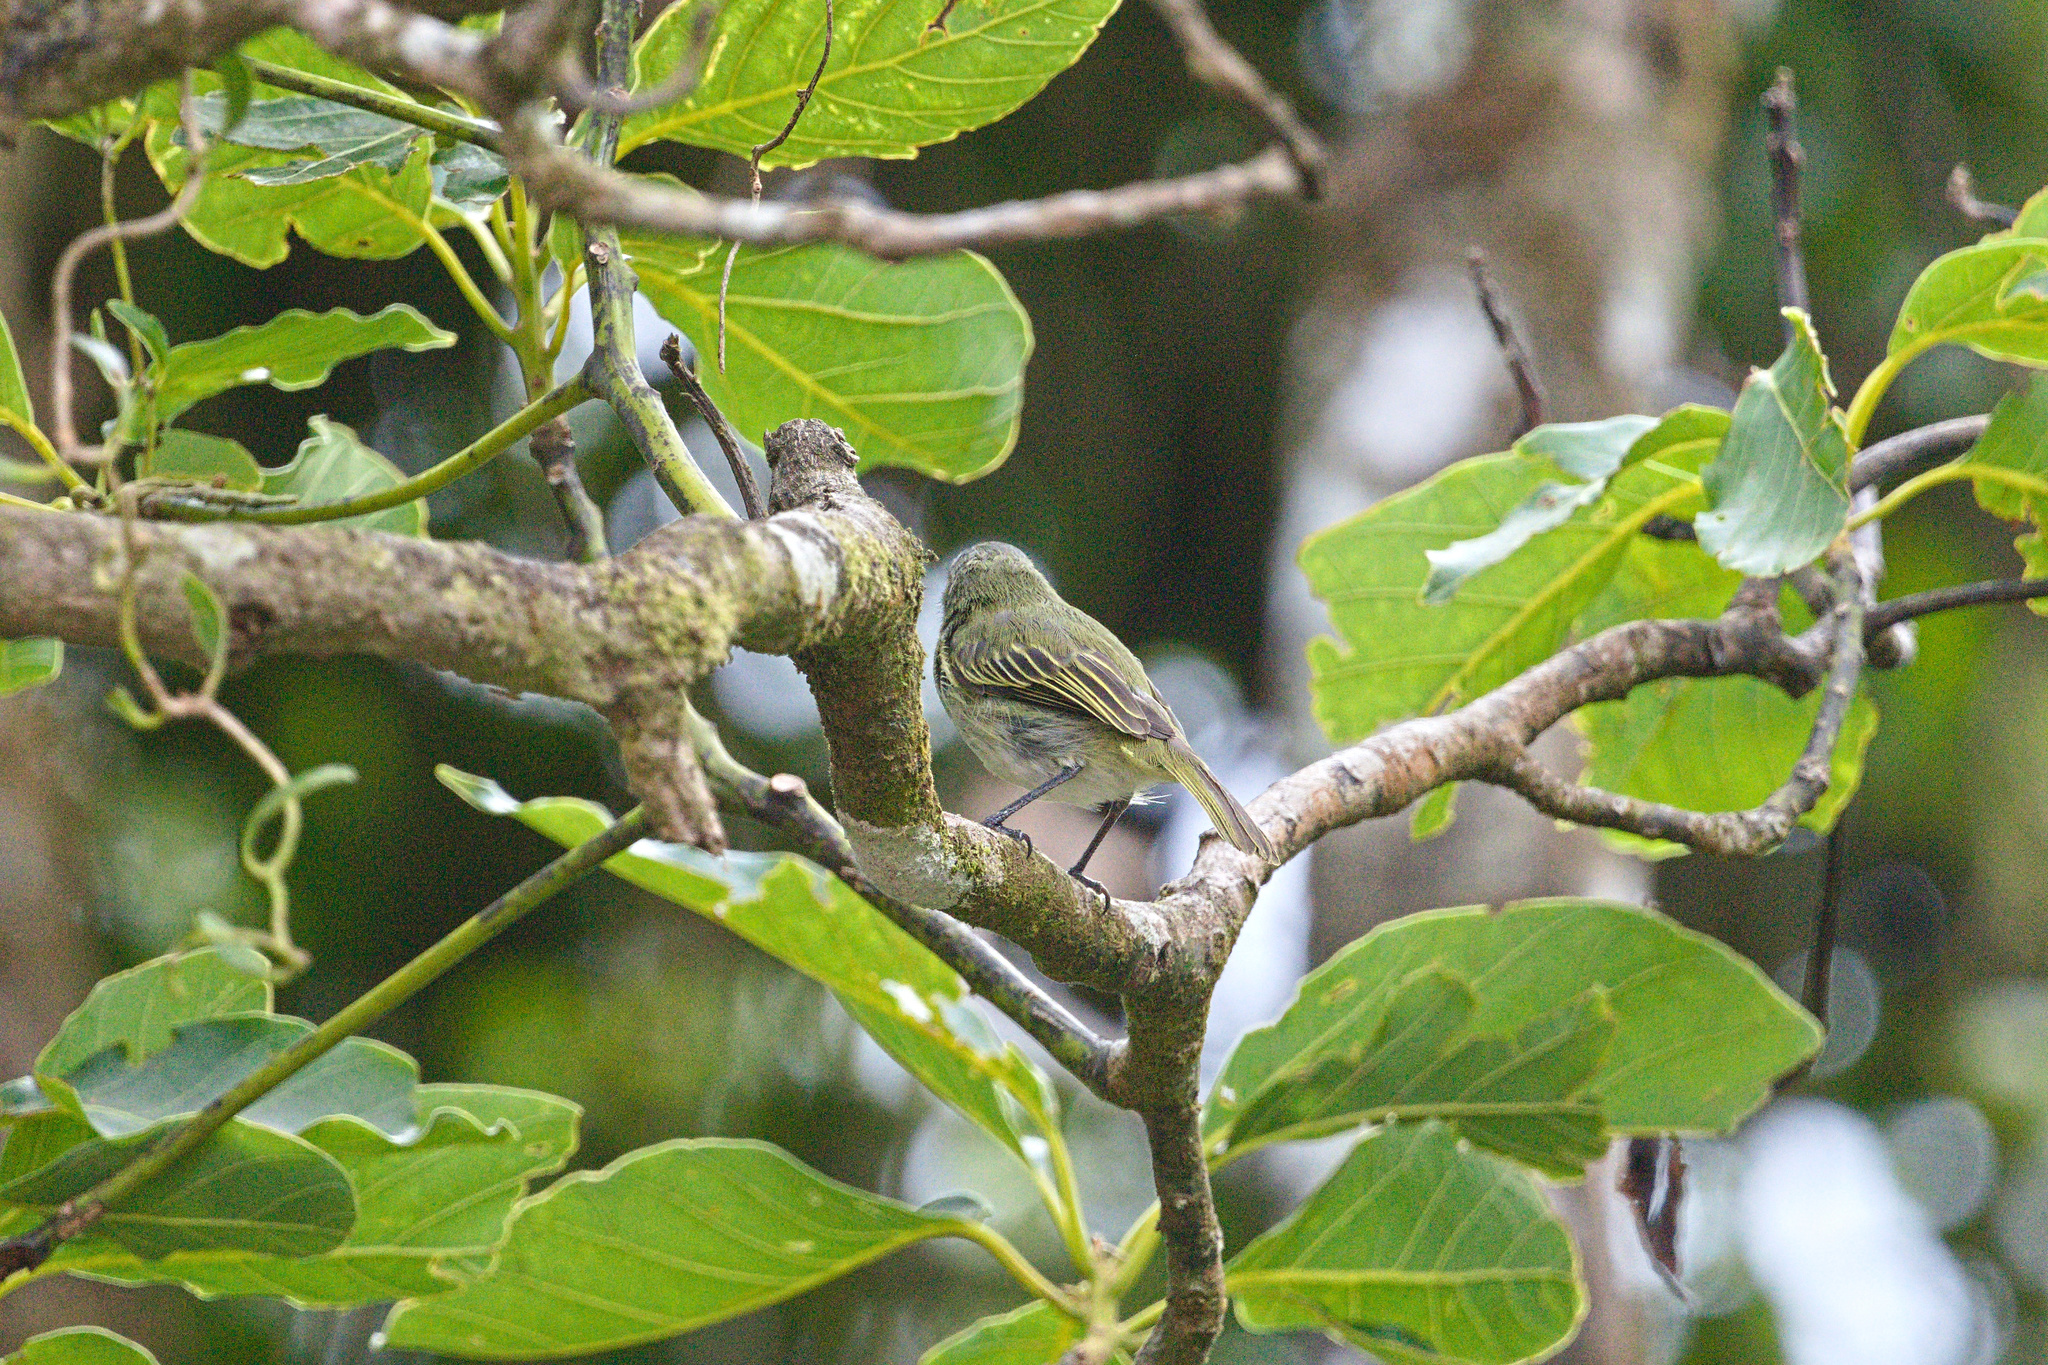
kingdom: Animalia
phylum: Chordata
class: Aves
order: Passeriformes
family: Tyrannidae
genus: Zimmerius
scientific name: Zimmerius vilissimus
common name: Paltry tyrannulet
